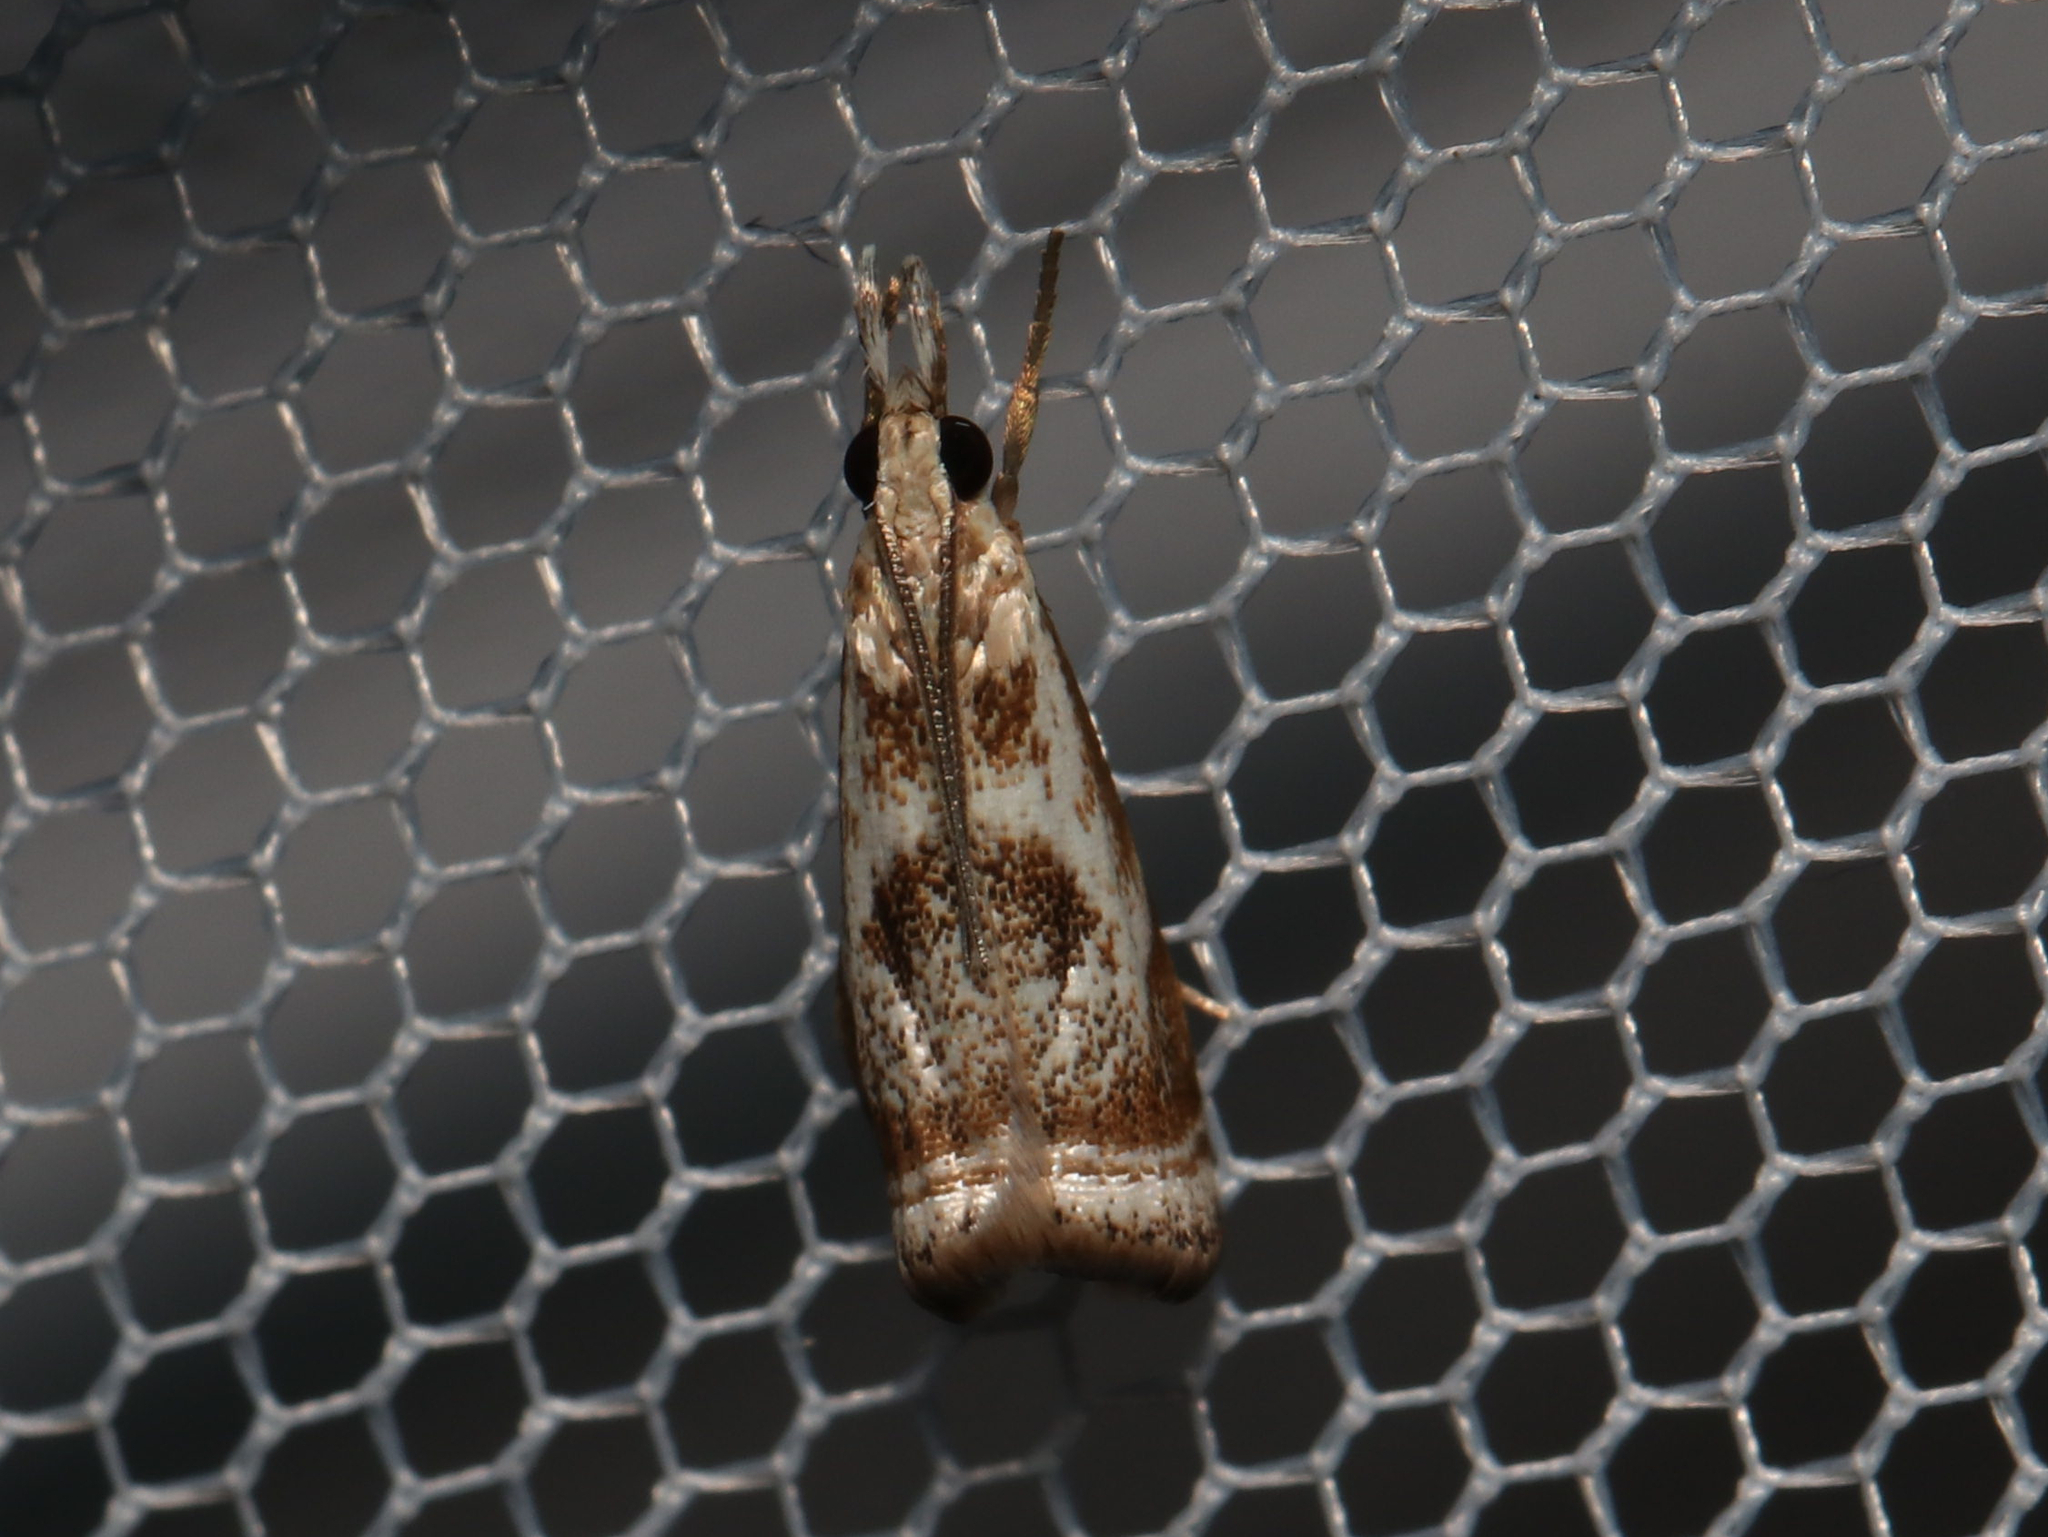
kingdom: Animalia
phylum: Arthropoda
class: Insecta
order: Lepidoptera
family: Crambidae
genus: Microcrambus
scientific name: Microcrambus elegans
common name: Elegant grass-veneer
